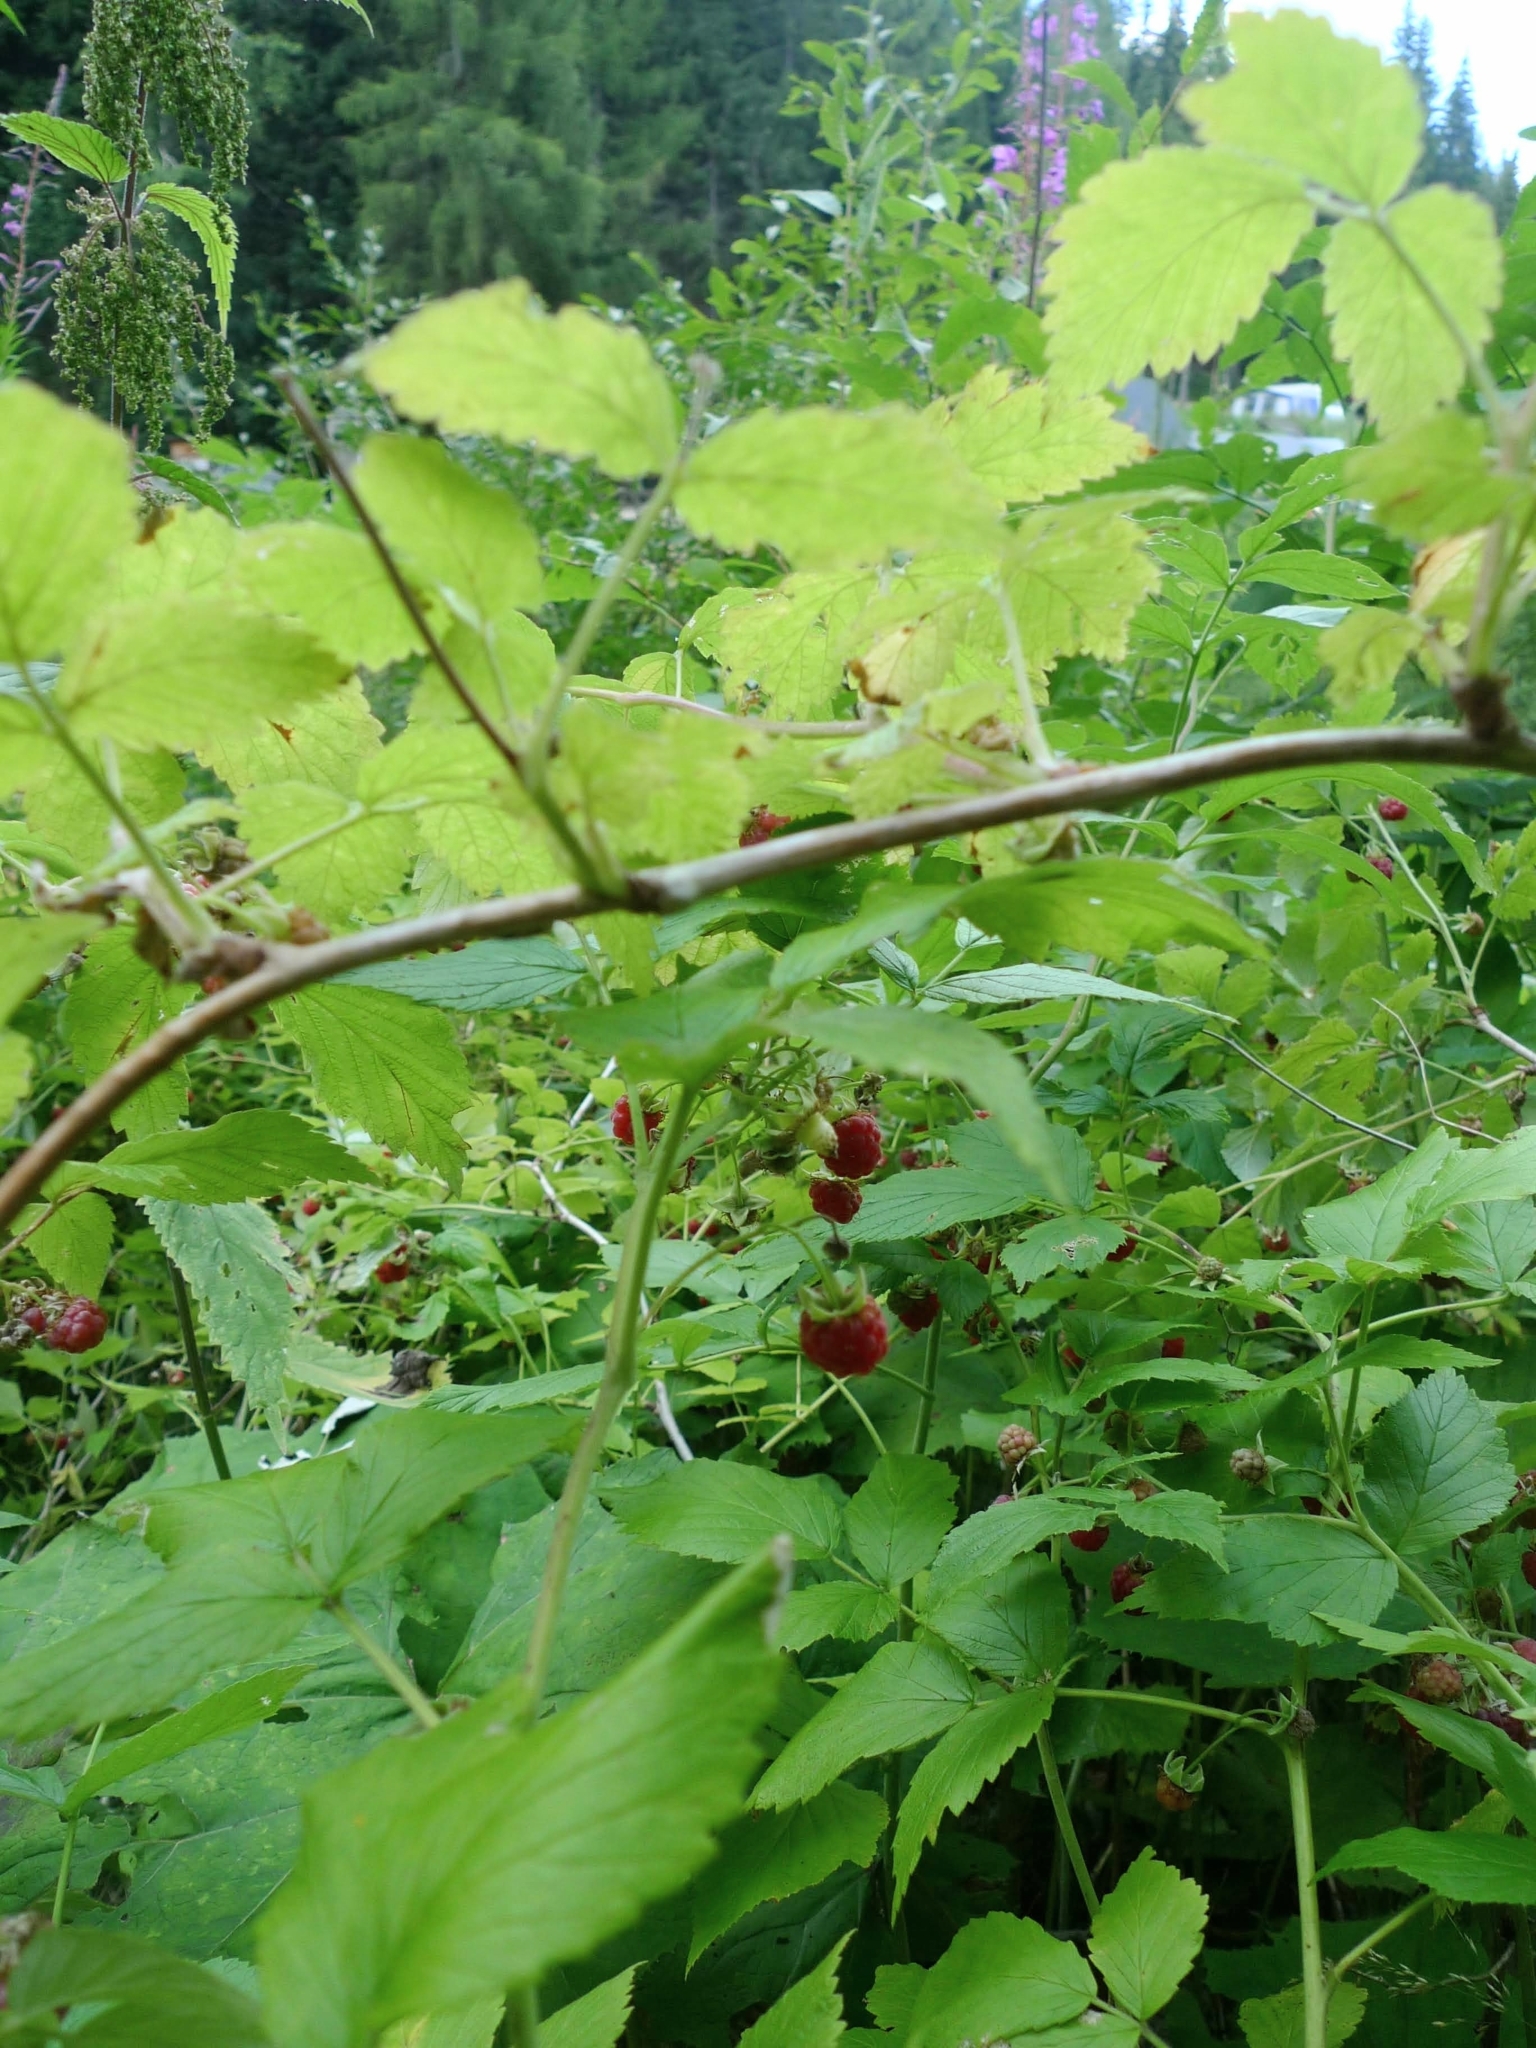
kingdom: Plantae
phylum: Tracheophyta
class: Magnoliopsida
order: Rosales
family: Rosaceae
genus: Rubus
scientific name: Rubus idaeus
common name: Raspberry
